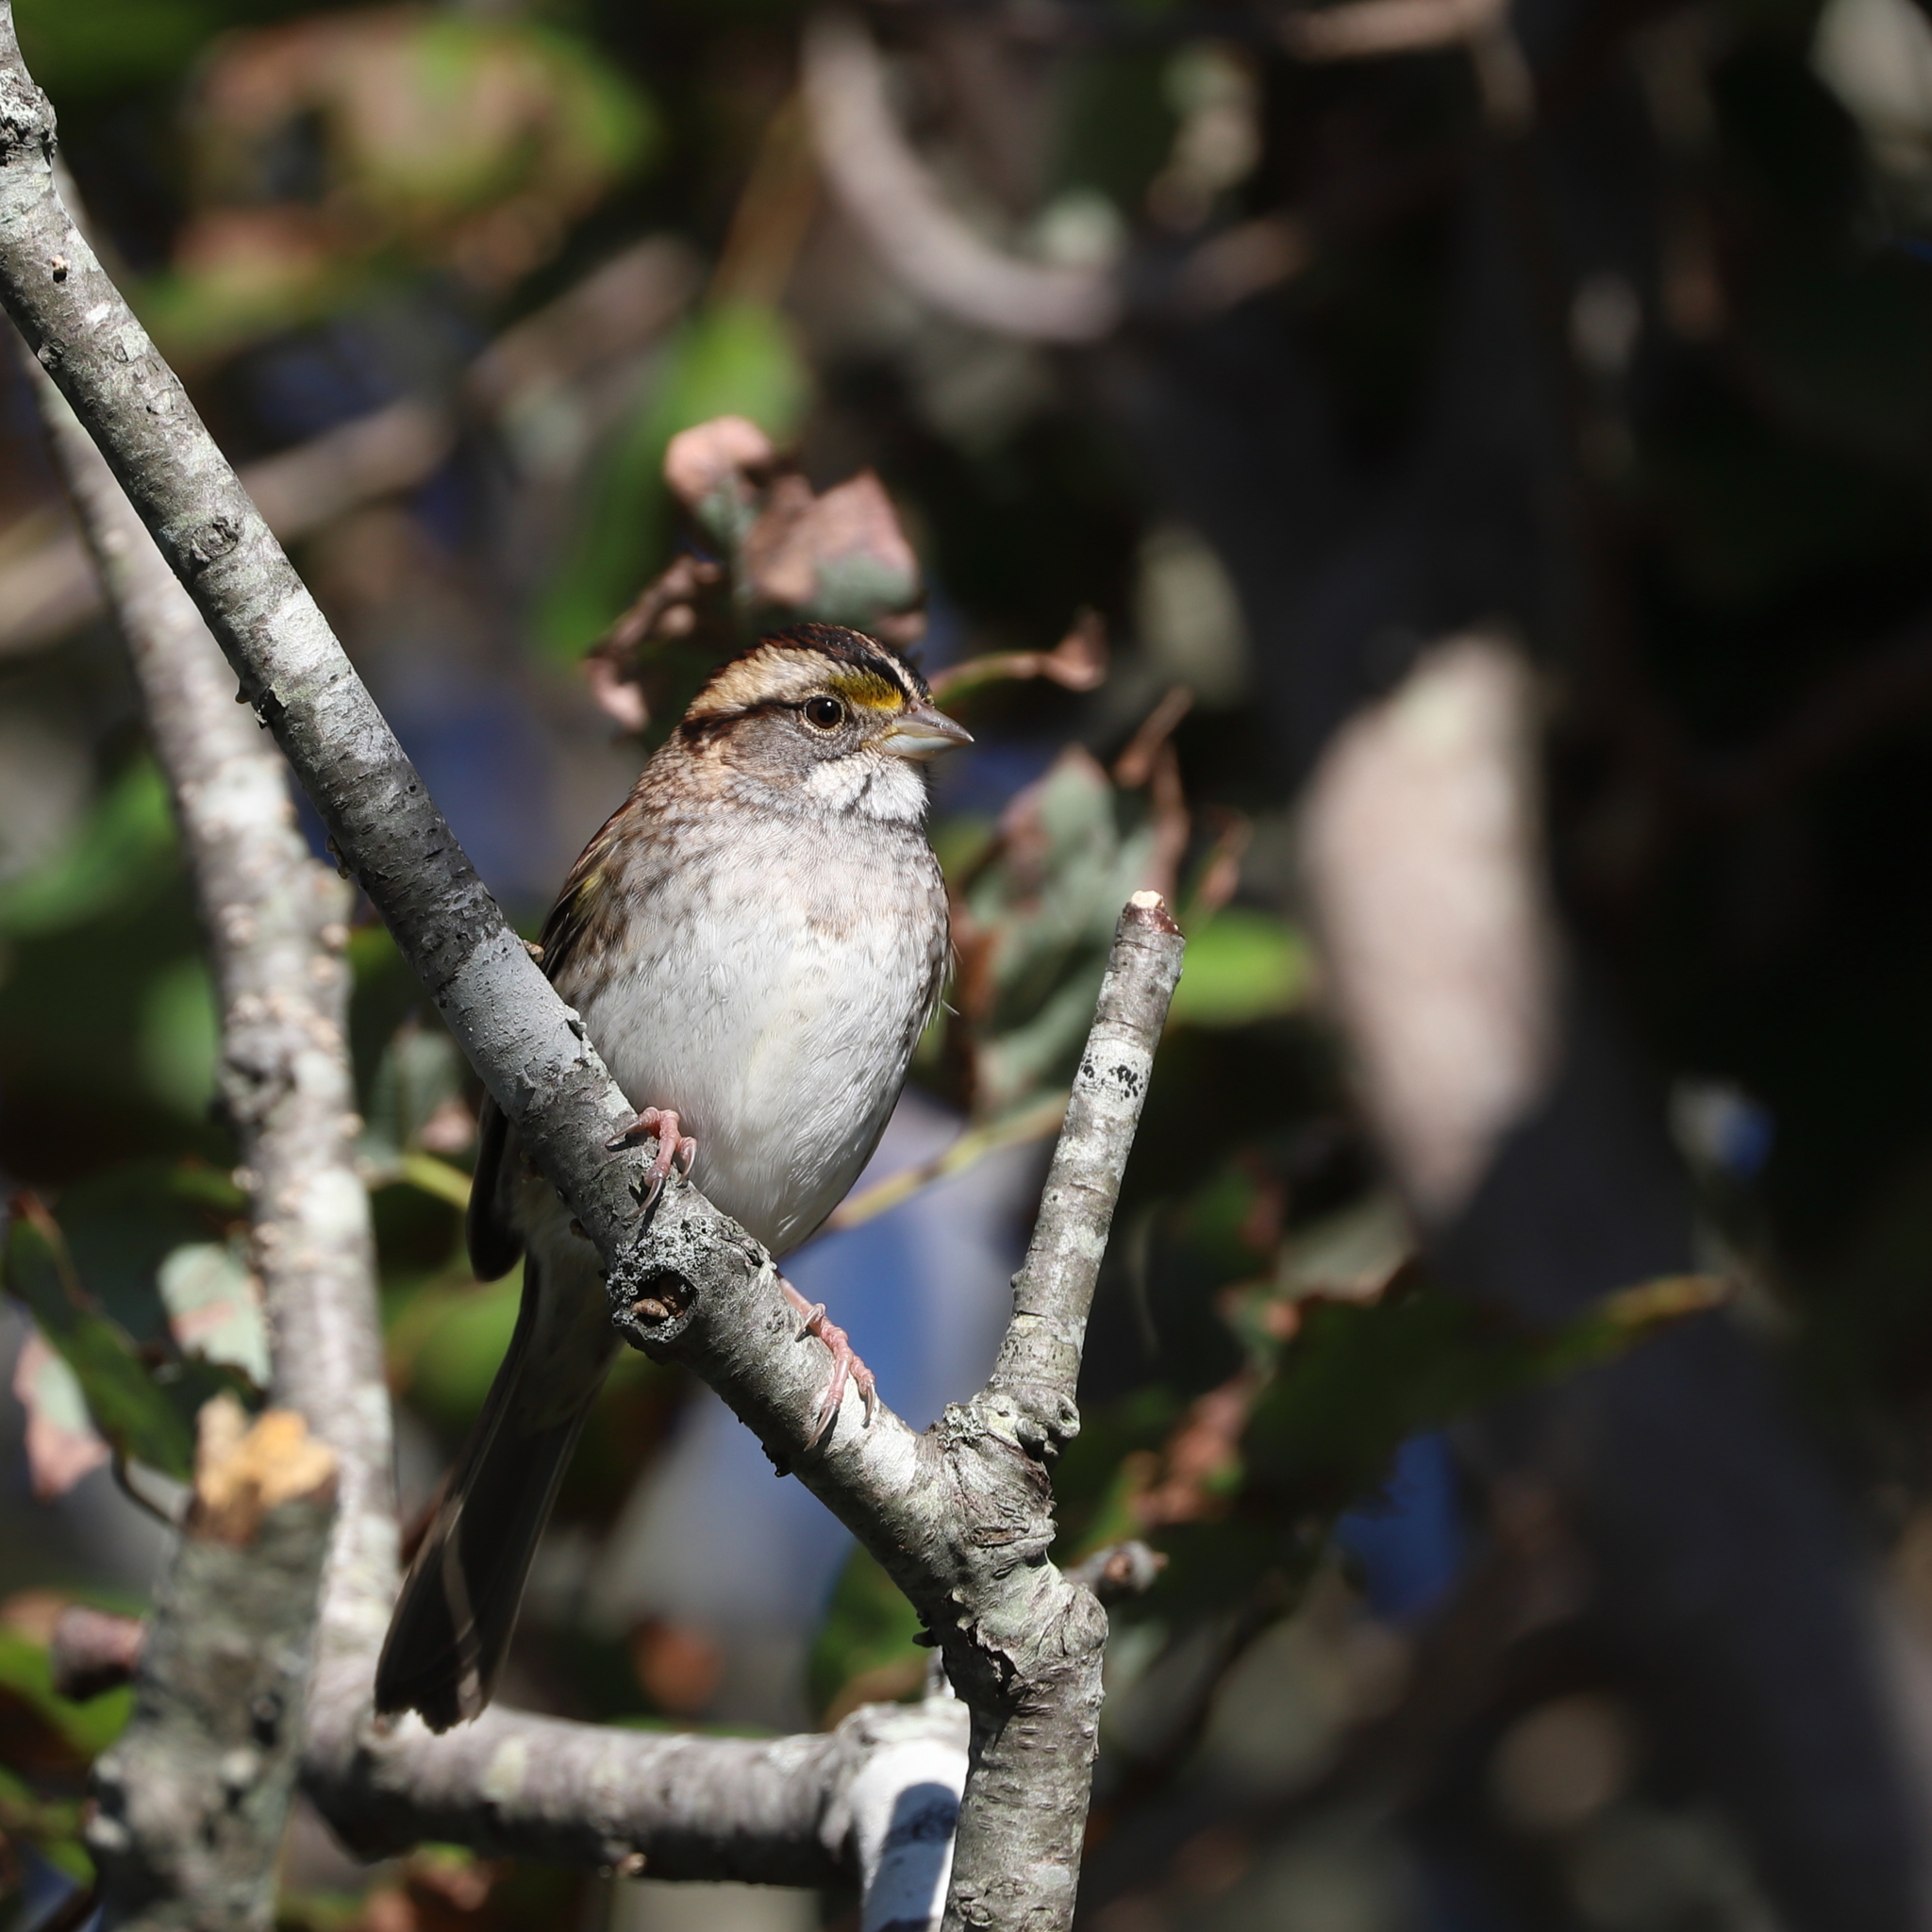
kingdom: Animalia
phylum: Chordata
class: Aves
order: Passeriformes
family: Passerellidae
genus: Zonotrichia
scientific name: Zonotrichia albicollis
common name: White-throated sparrow
